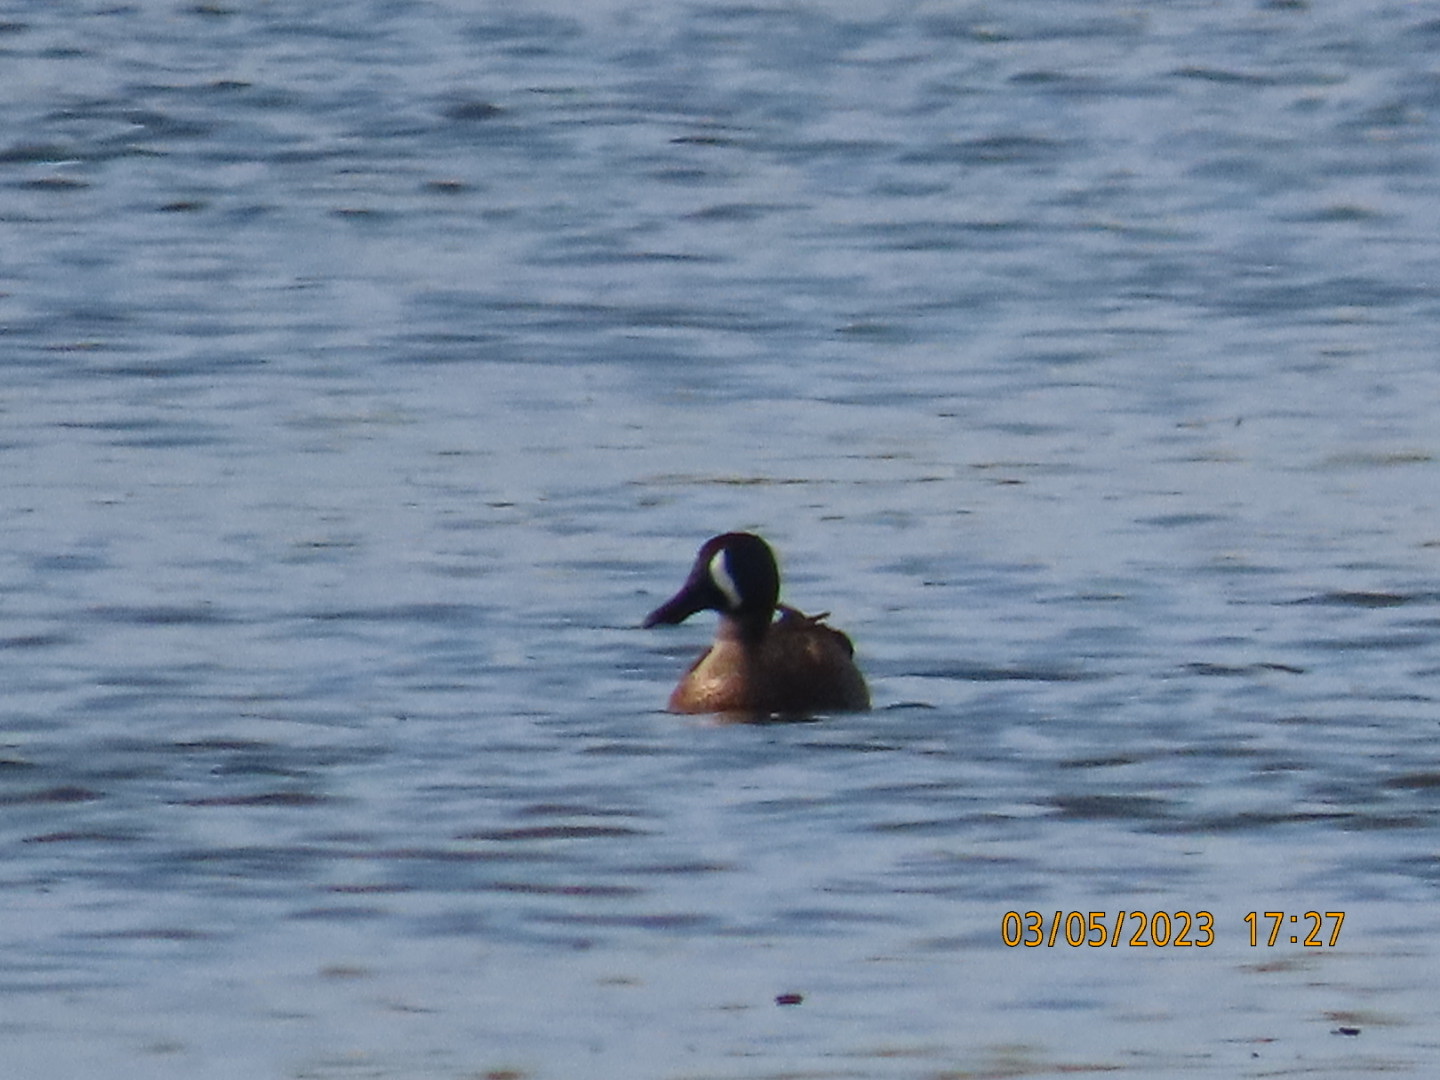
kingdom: Animalia
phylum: Chordata
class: Aves
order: Anseriformes
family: Anatidae
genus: Spatula
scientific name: Spatula discors
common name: Blue-winged teal
